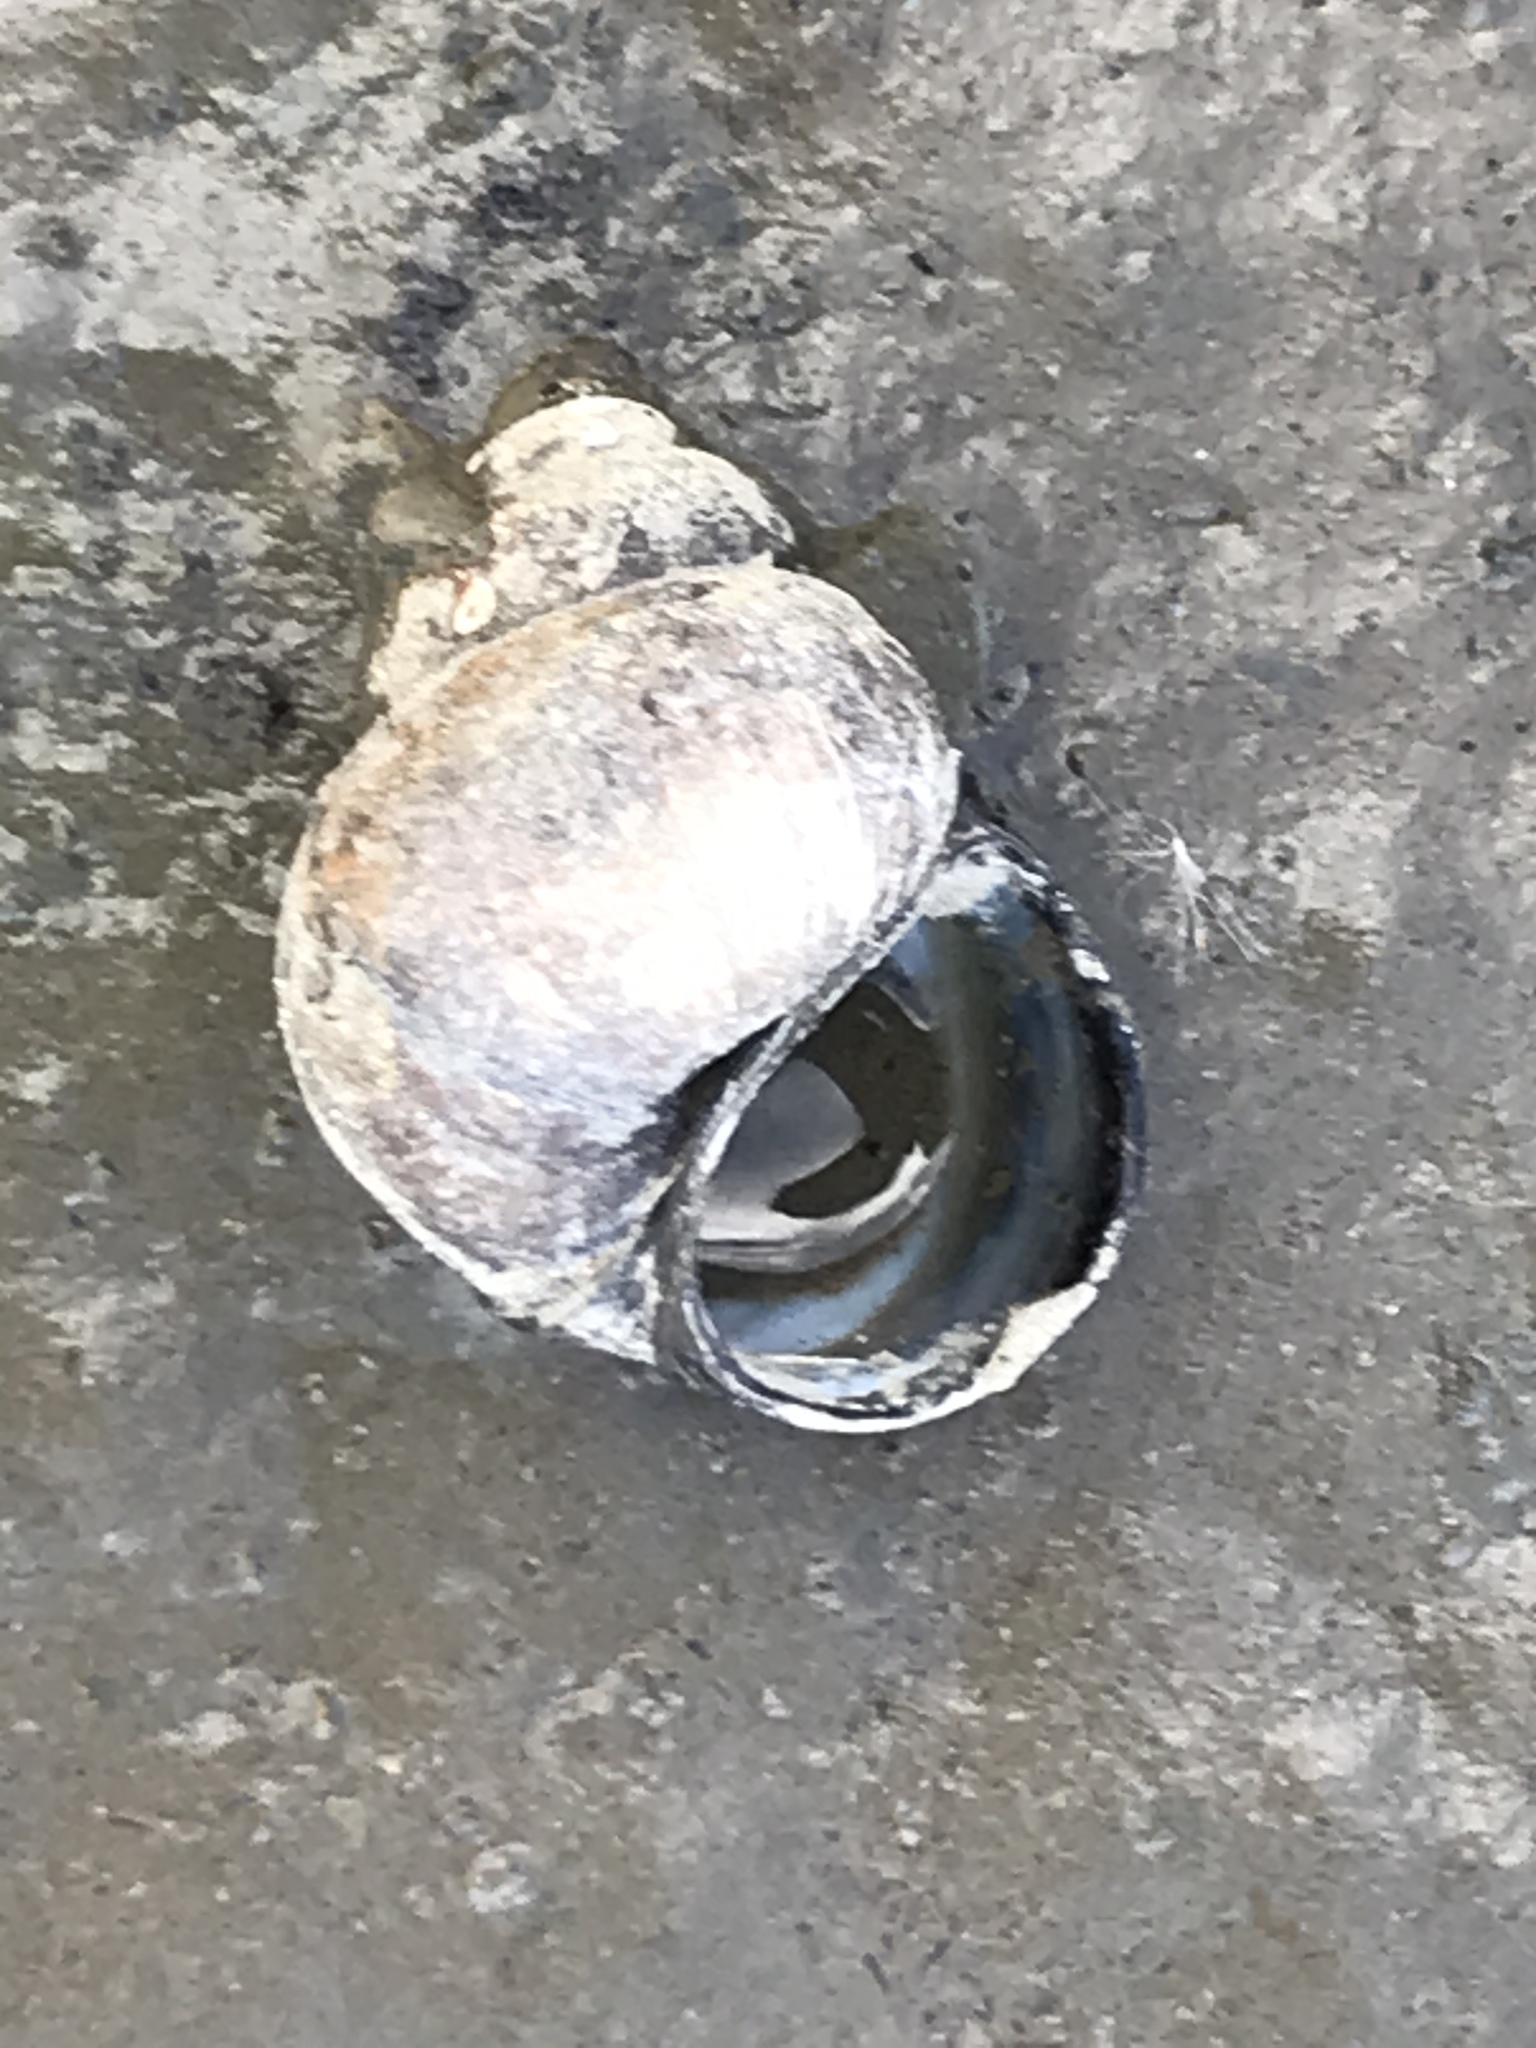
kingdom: Animalia
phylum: Mollusca
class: Gastropoda
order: Architaenioglossa
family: Viviparidae
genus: Cipangopaludina
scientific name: Cipangopaludina chinensis
